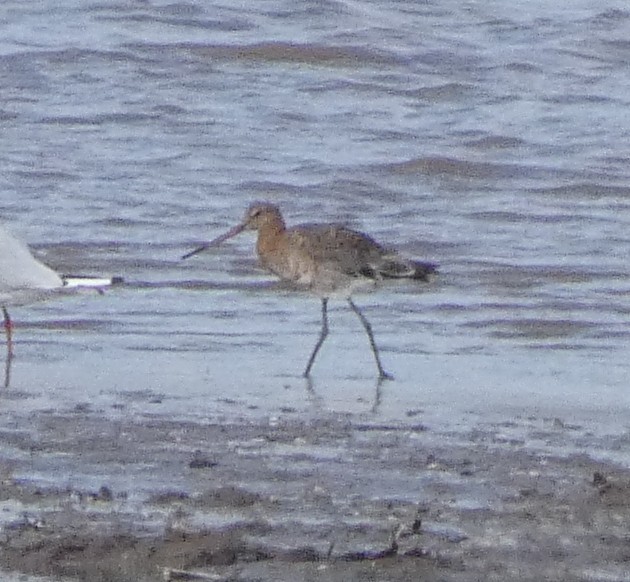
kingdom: Animalia
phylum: Chordata
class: Aves
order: Charadriiformes
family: Scolopacidae
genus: Limosa
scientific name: Limosa limosa
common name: Black-tailed godwit
